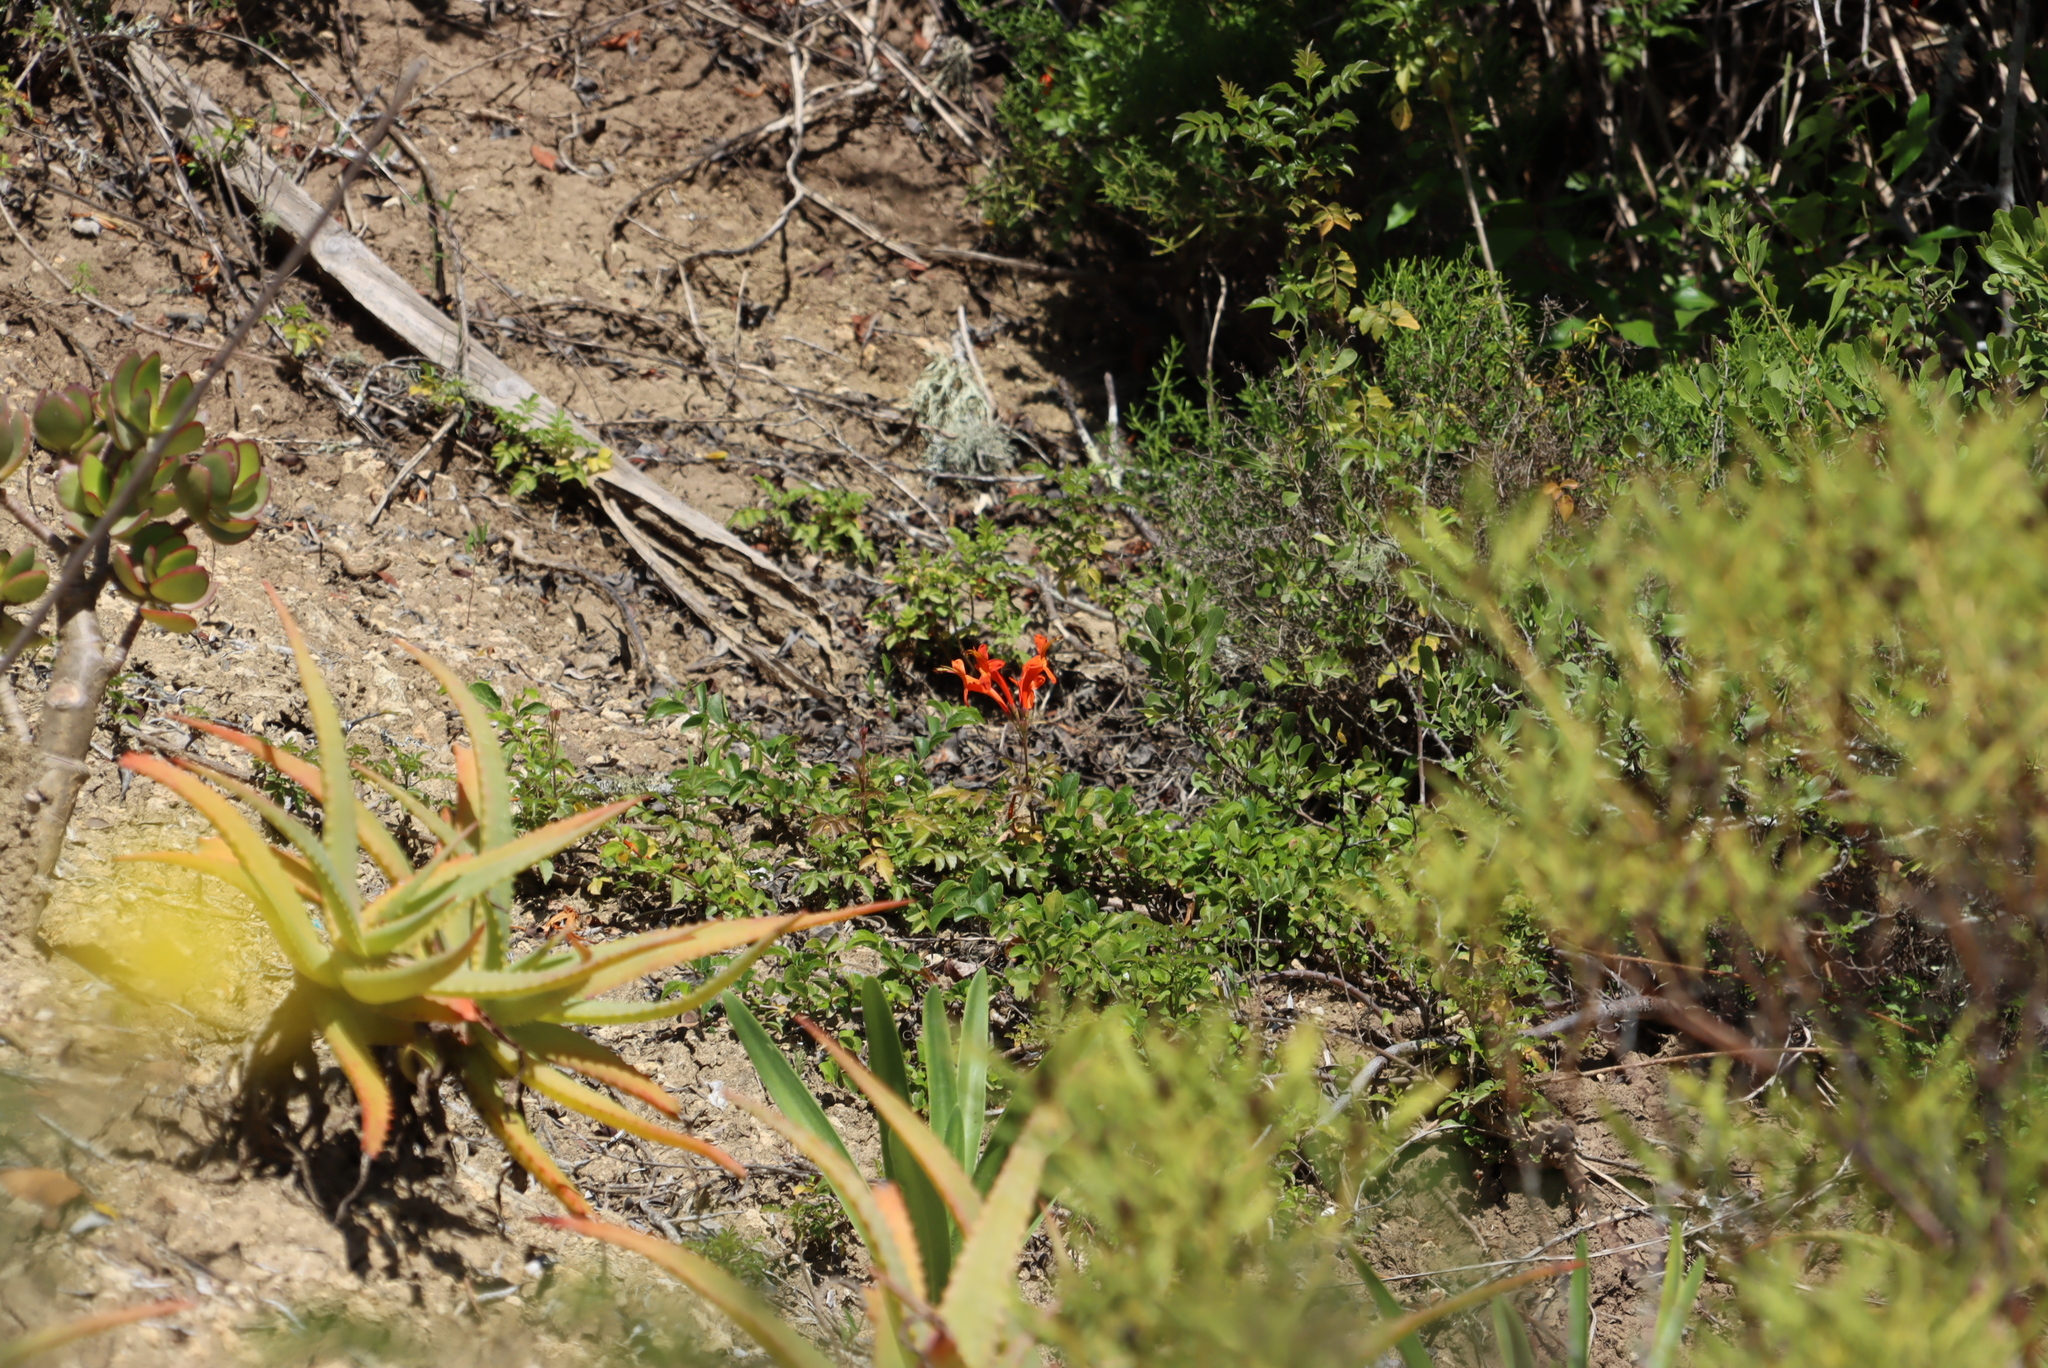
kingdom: Plantae
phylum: Tracheophyta
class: Magnoliopsida
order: Lamiales
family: Bignoniaceae
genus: Tecomaria
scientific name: Tecomaria capensis
